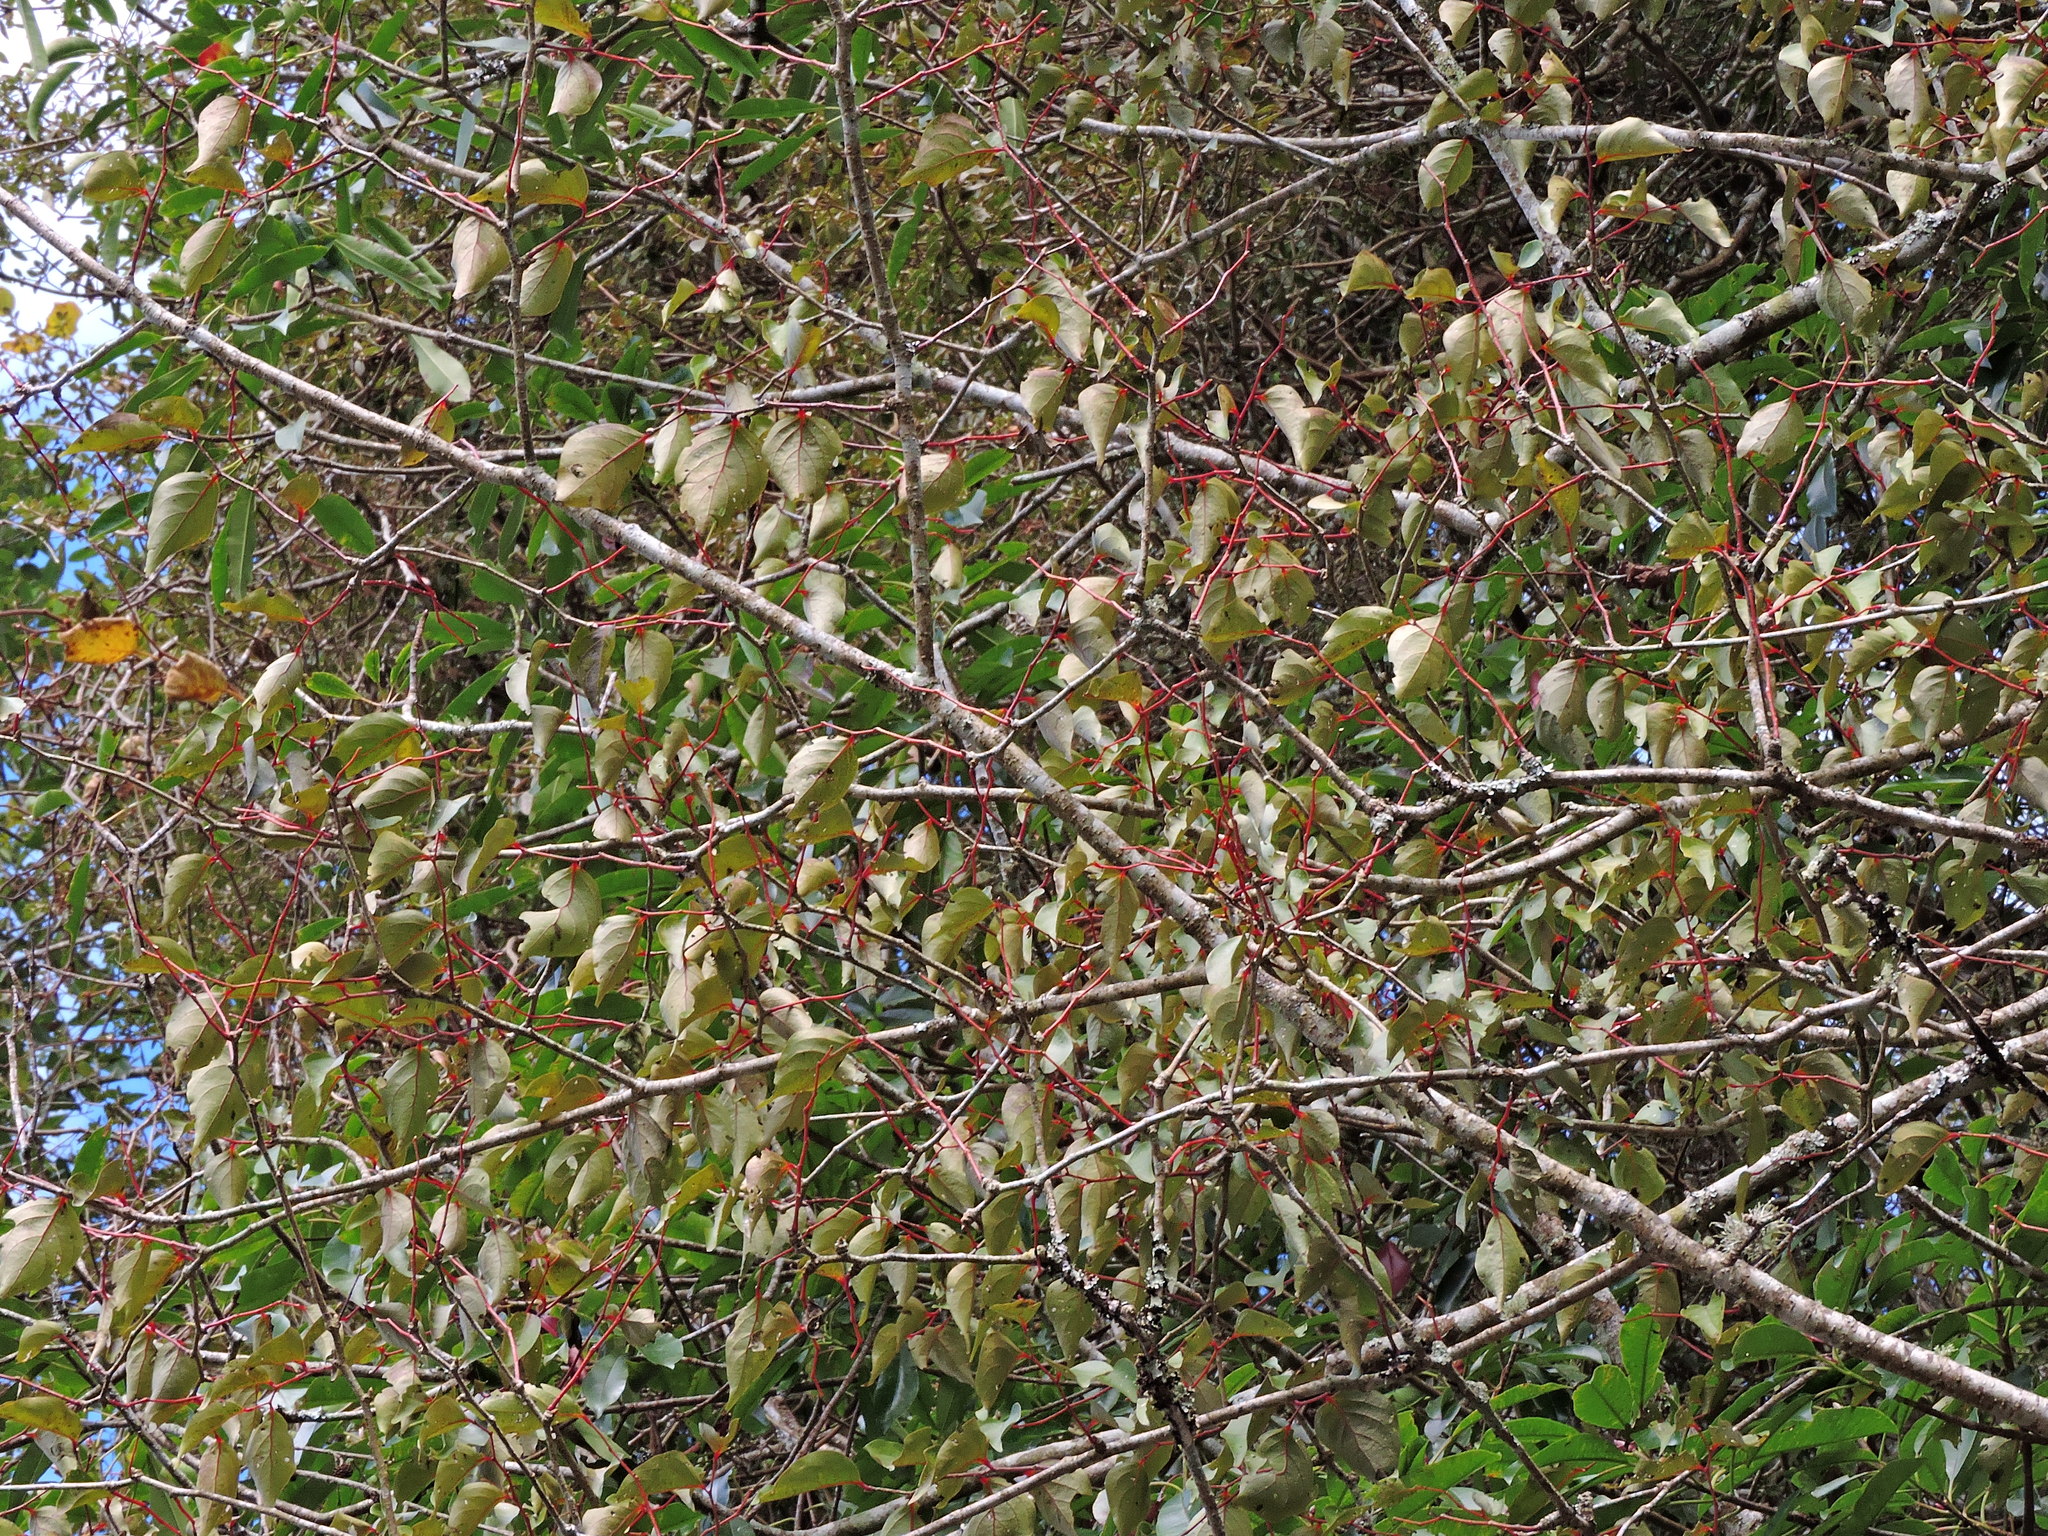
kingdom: Plantae
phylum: Tracheophyta
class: Magnoliopsida
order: Santalales
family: Schoepfiaceae
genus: Schoepfia
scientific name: Schoepfia jasminodora
